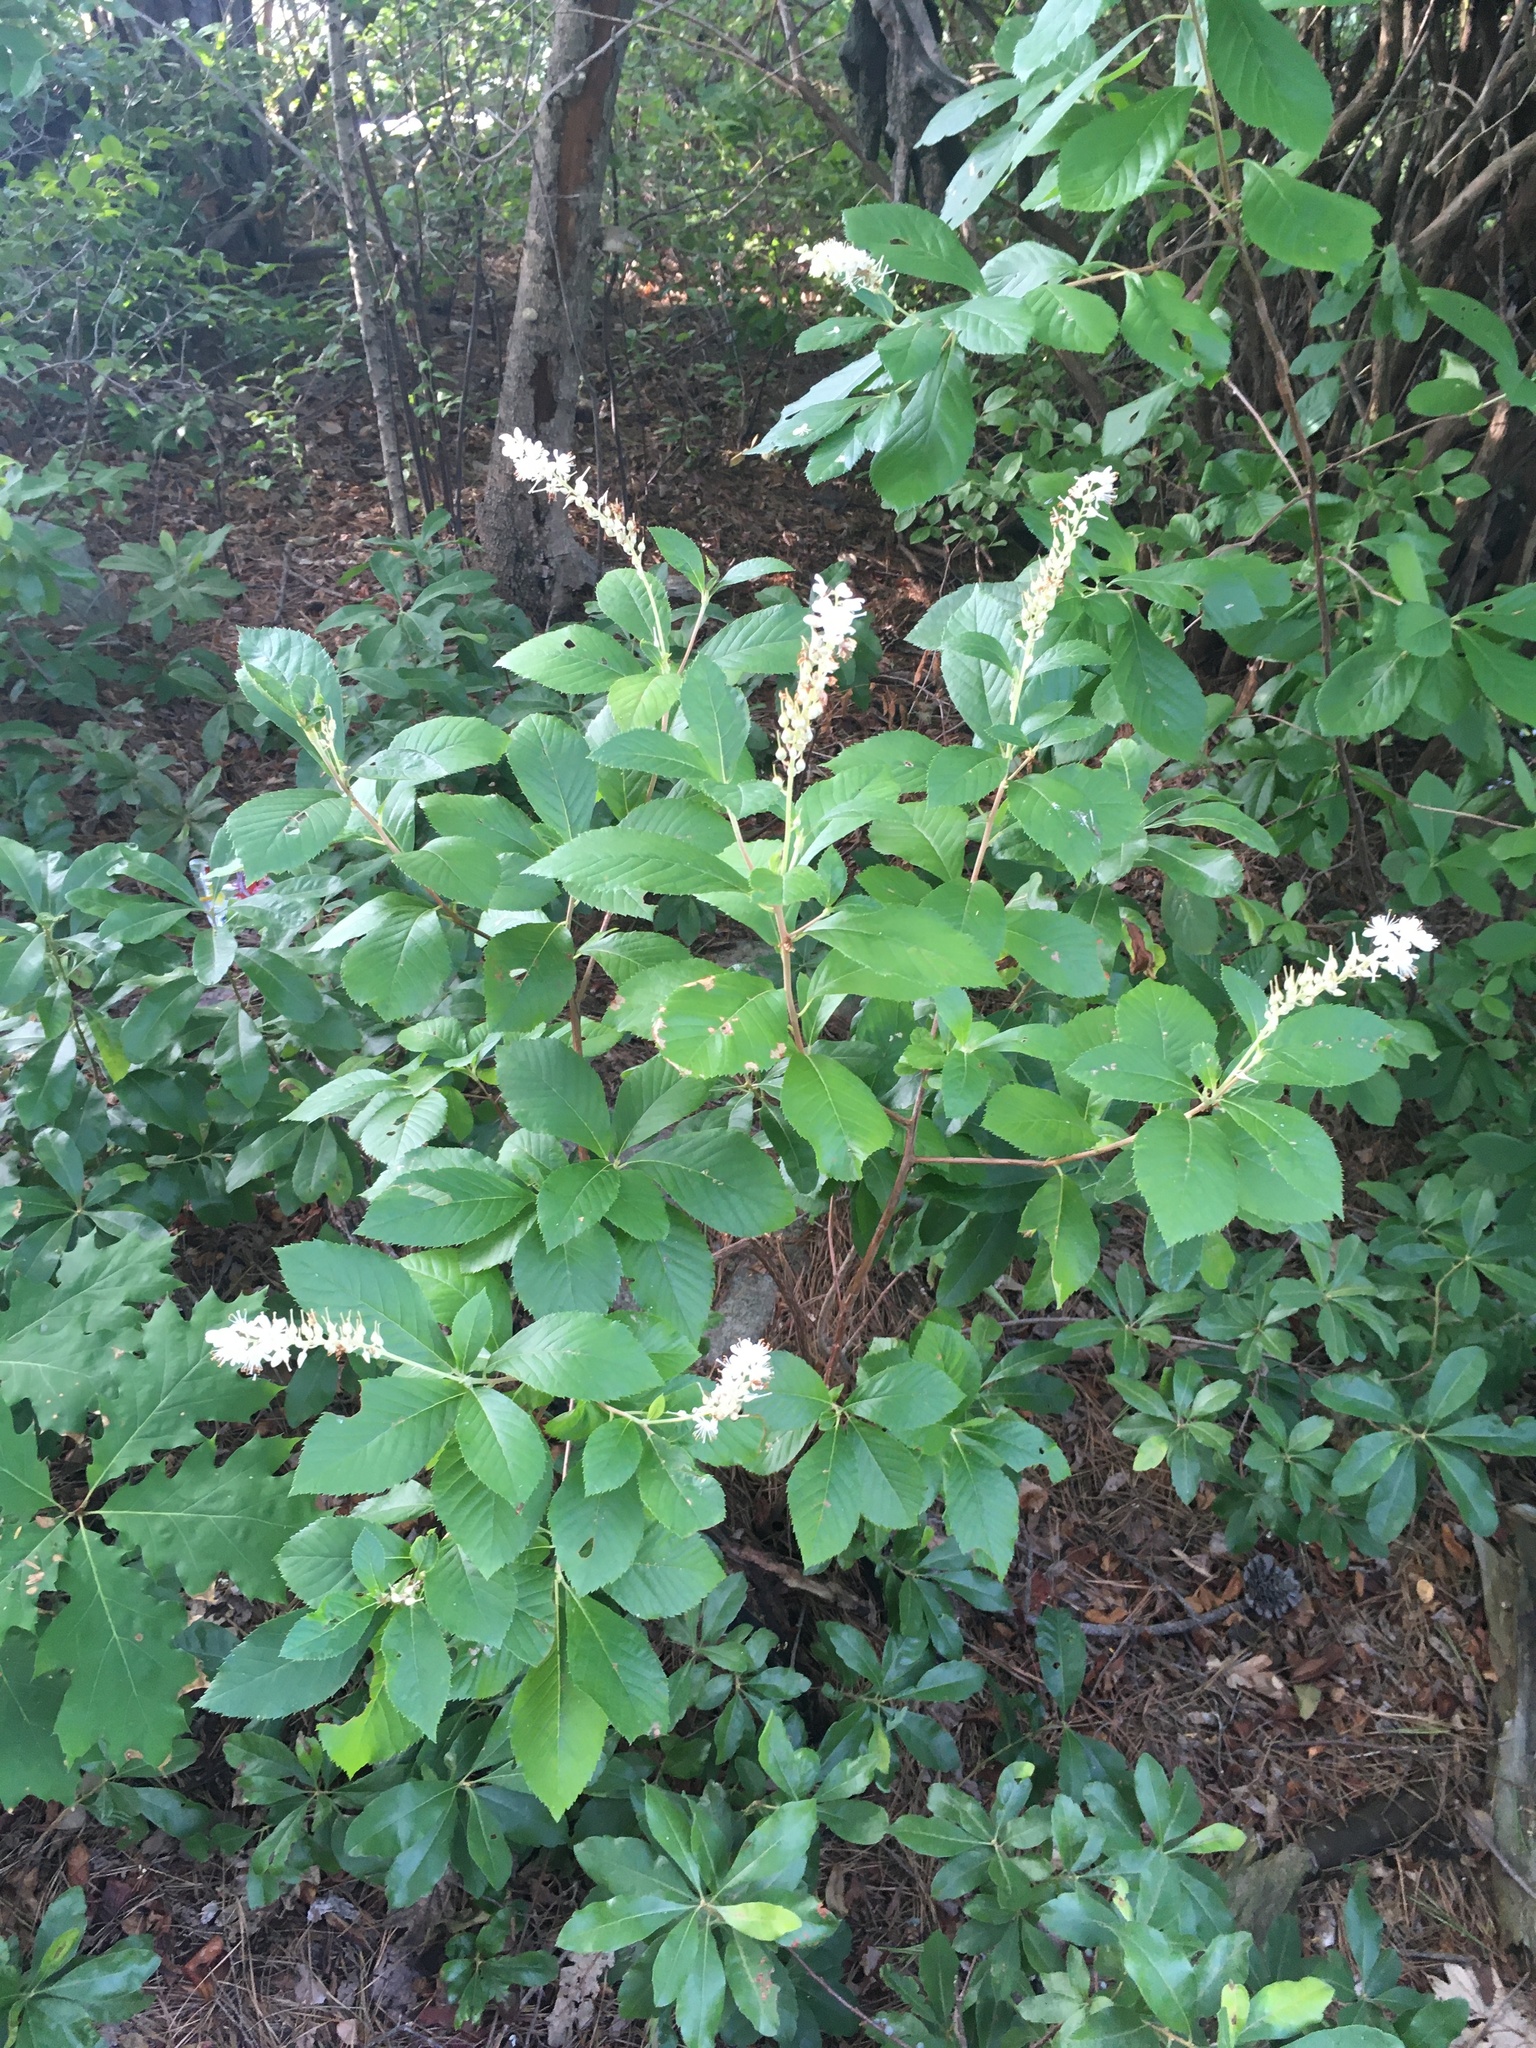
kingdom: Plantae
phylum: Tracheophyta
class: Magnoliopsida
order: Ericales
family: Clethraceae
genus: Clethra
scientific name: Clethra alnifolia
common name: Sweet pepperbush
